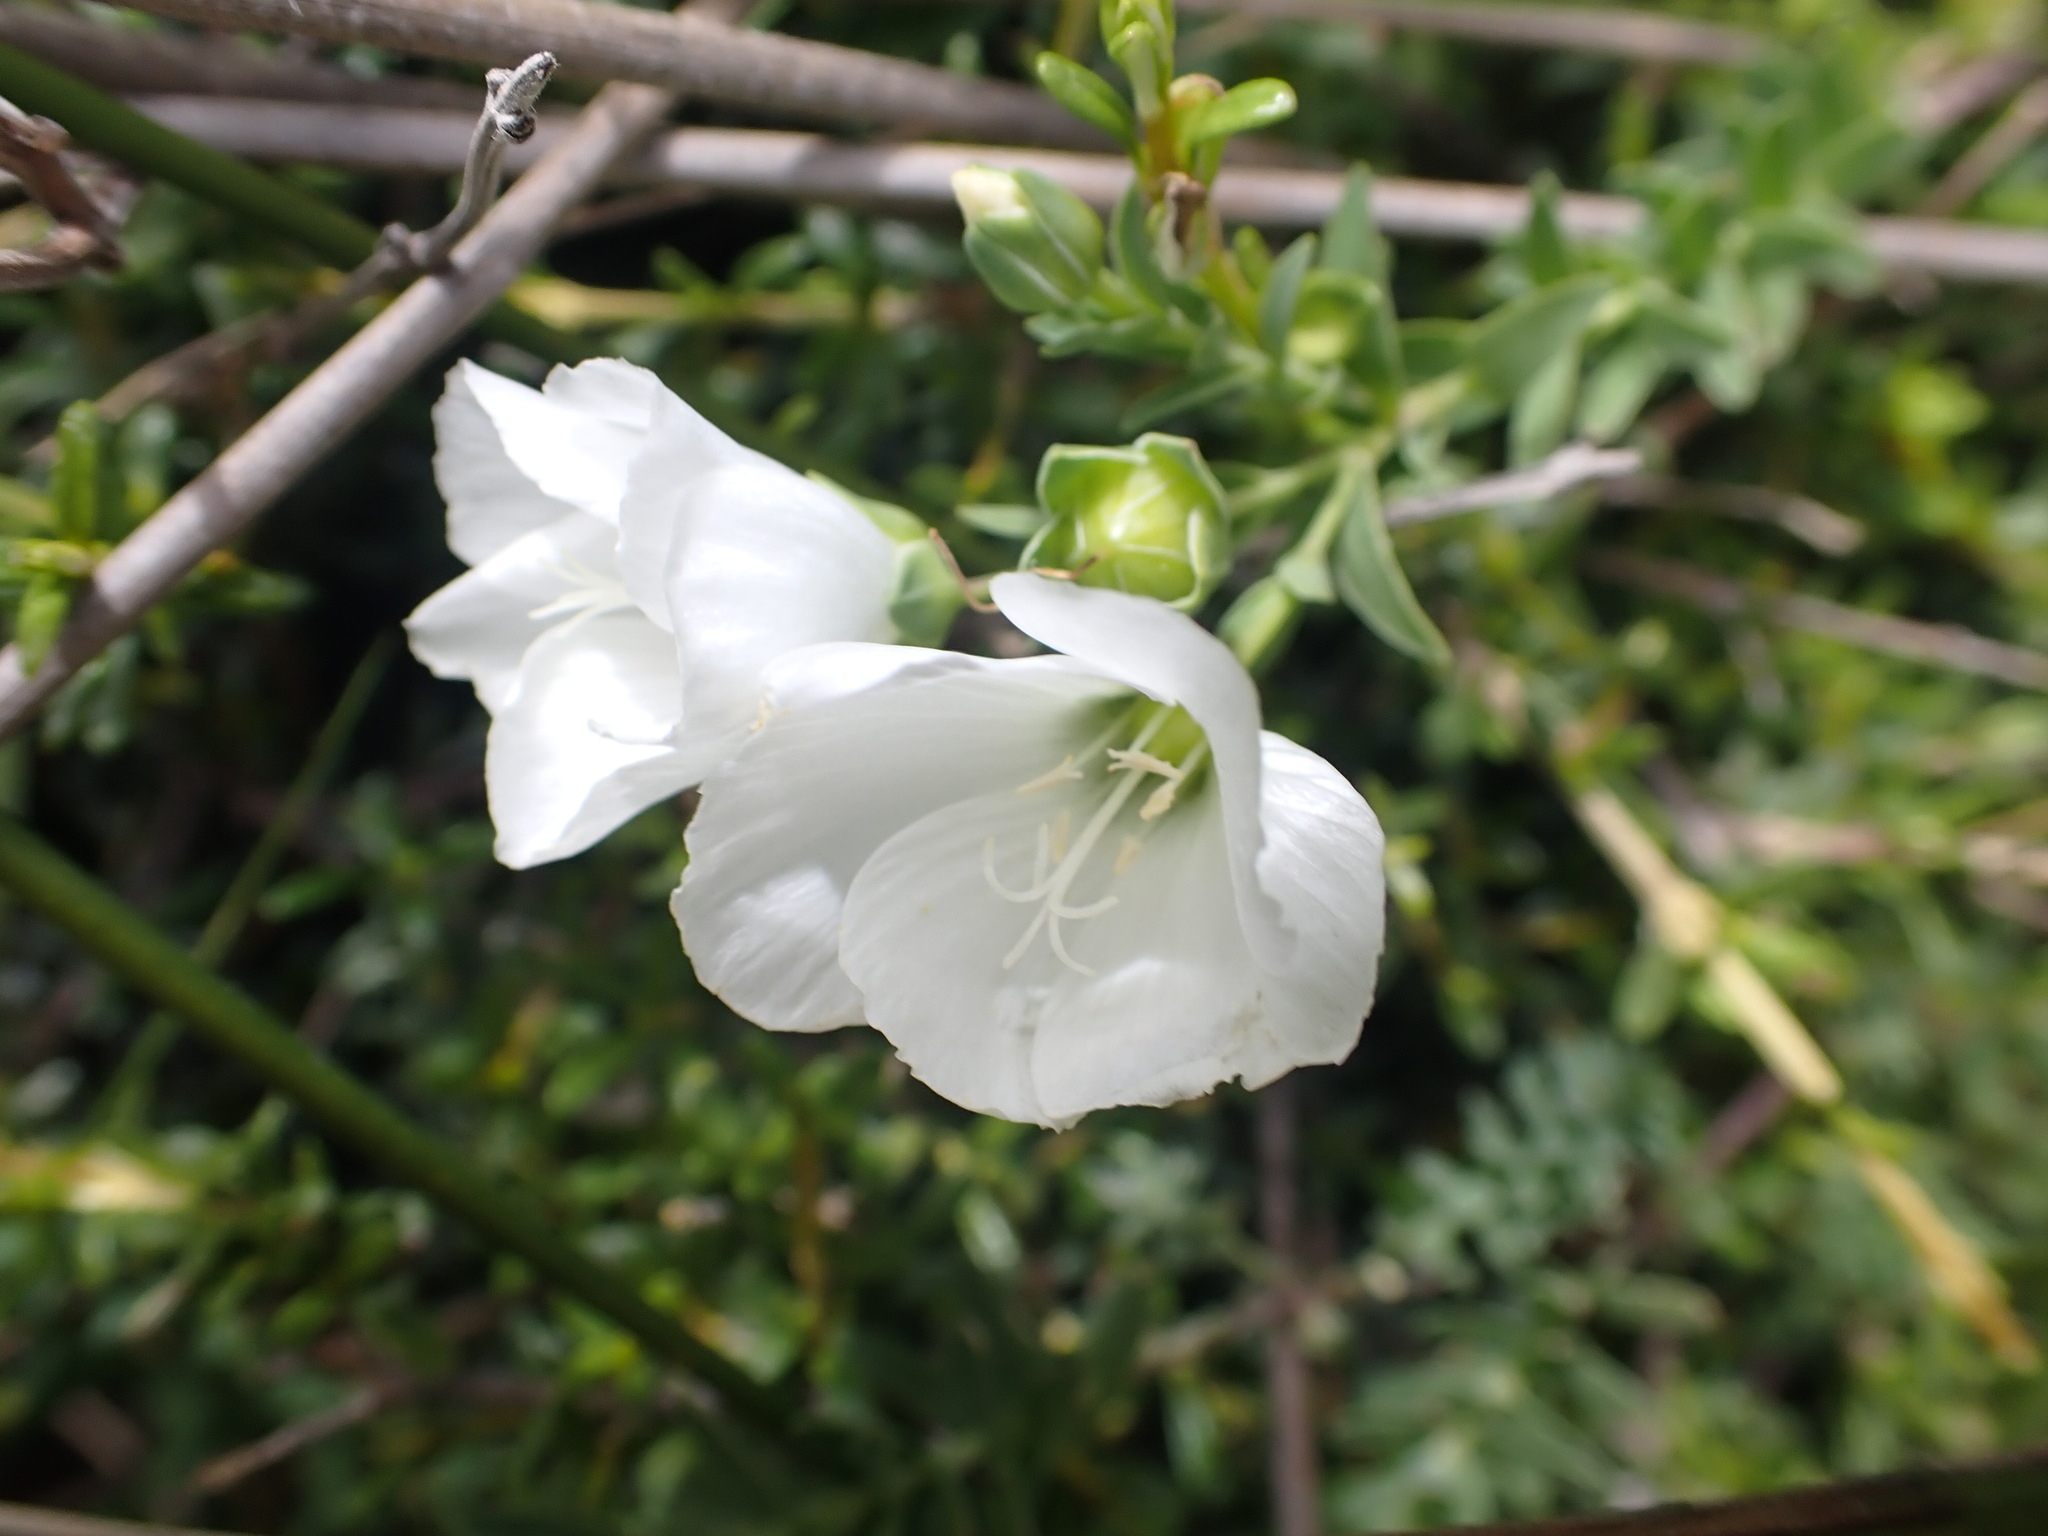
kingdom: Plantae
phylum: Tracheophyta
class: Magnoliopsida
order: Malpighiales
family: Linaceae
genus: Linum
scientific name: Linum monogynum
